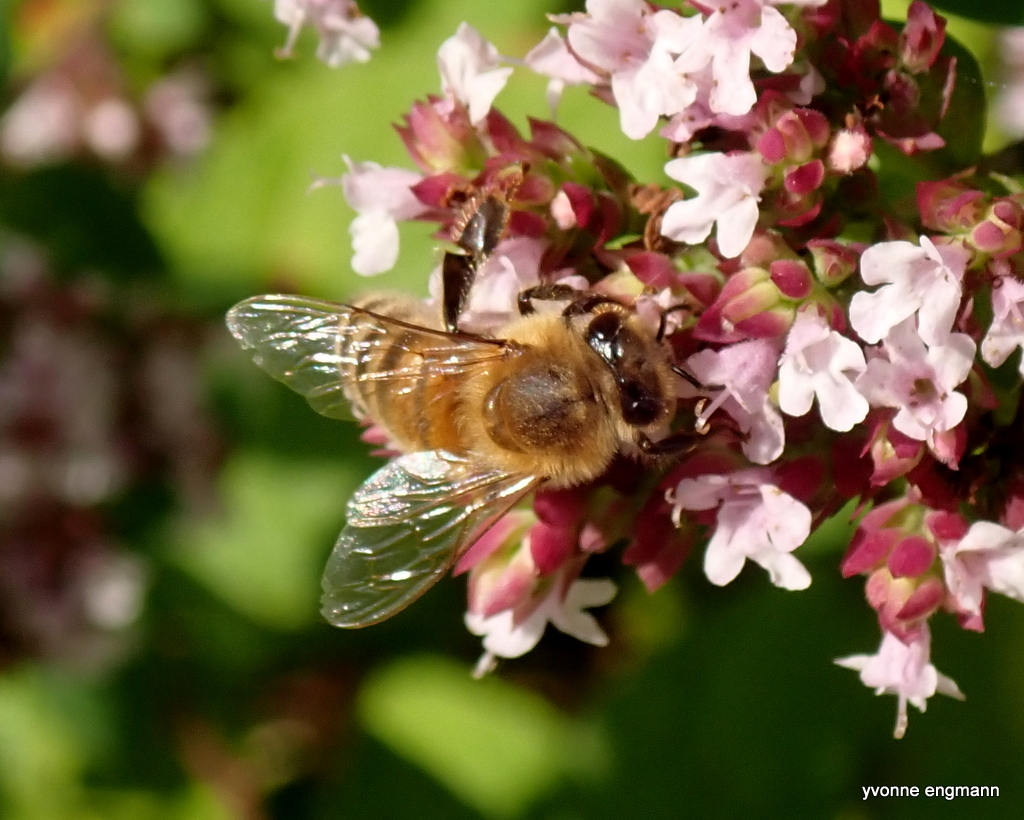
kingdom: Animalia
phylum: Arthropoda
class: Insecta
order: Hymenoptera
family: Apidae
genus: Apis
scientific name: Apis mellifera
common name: Honey bee
